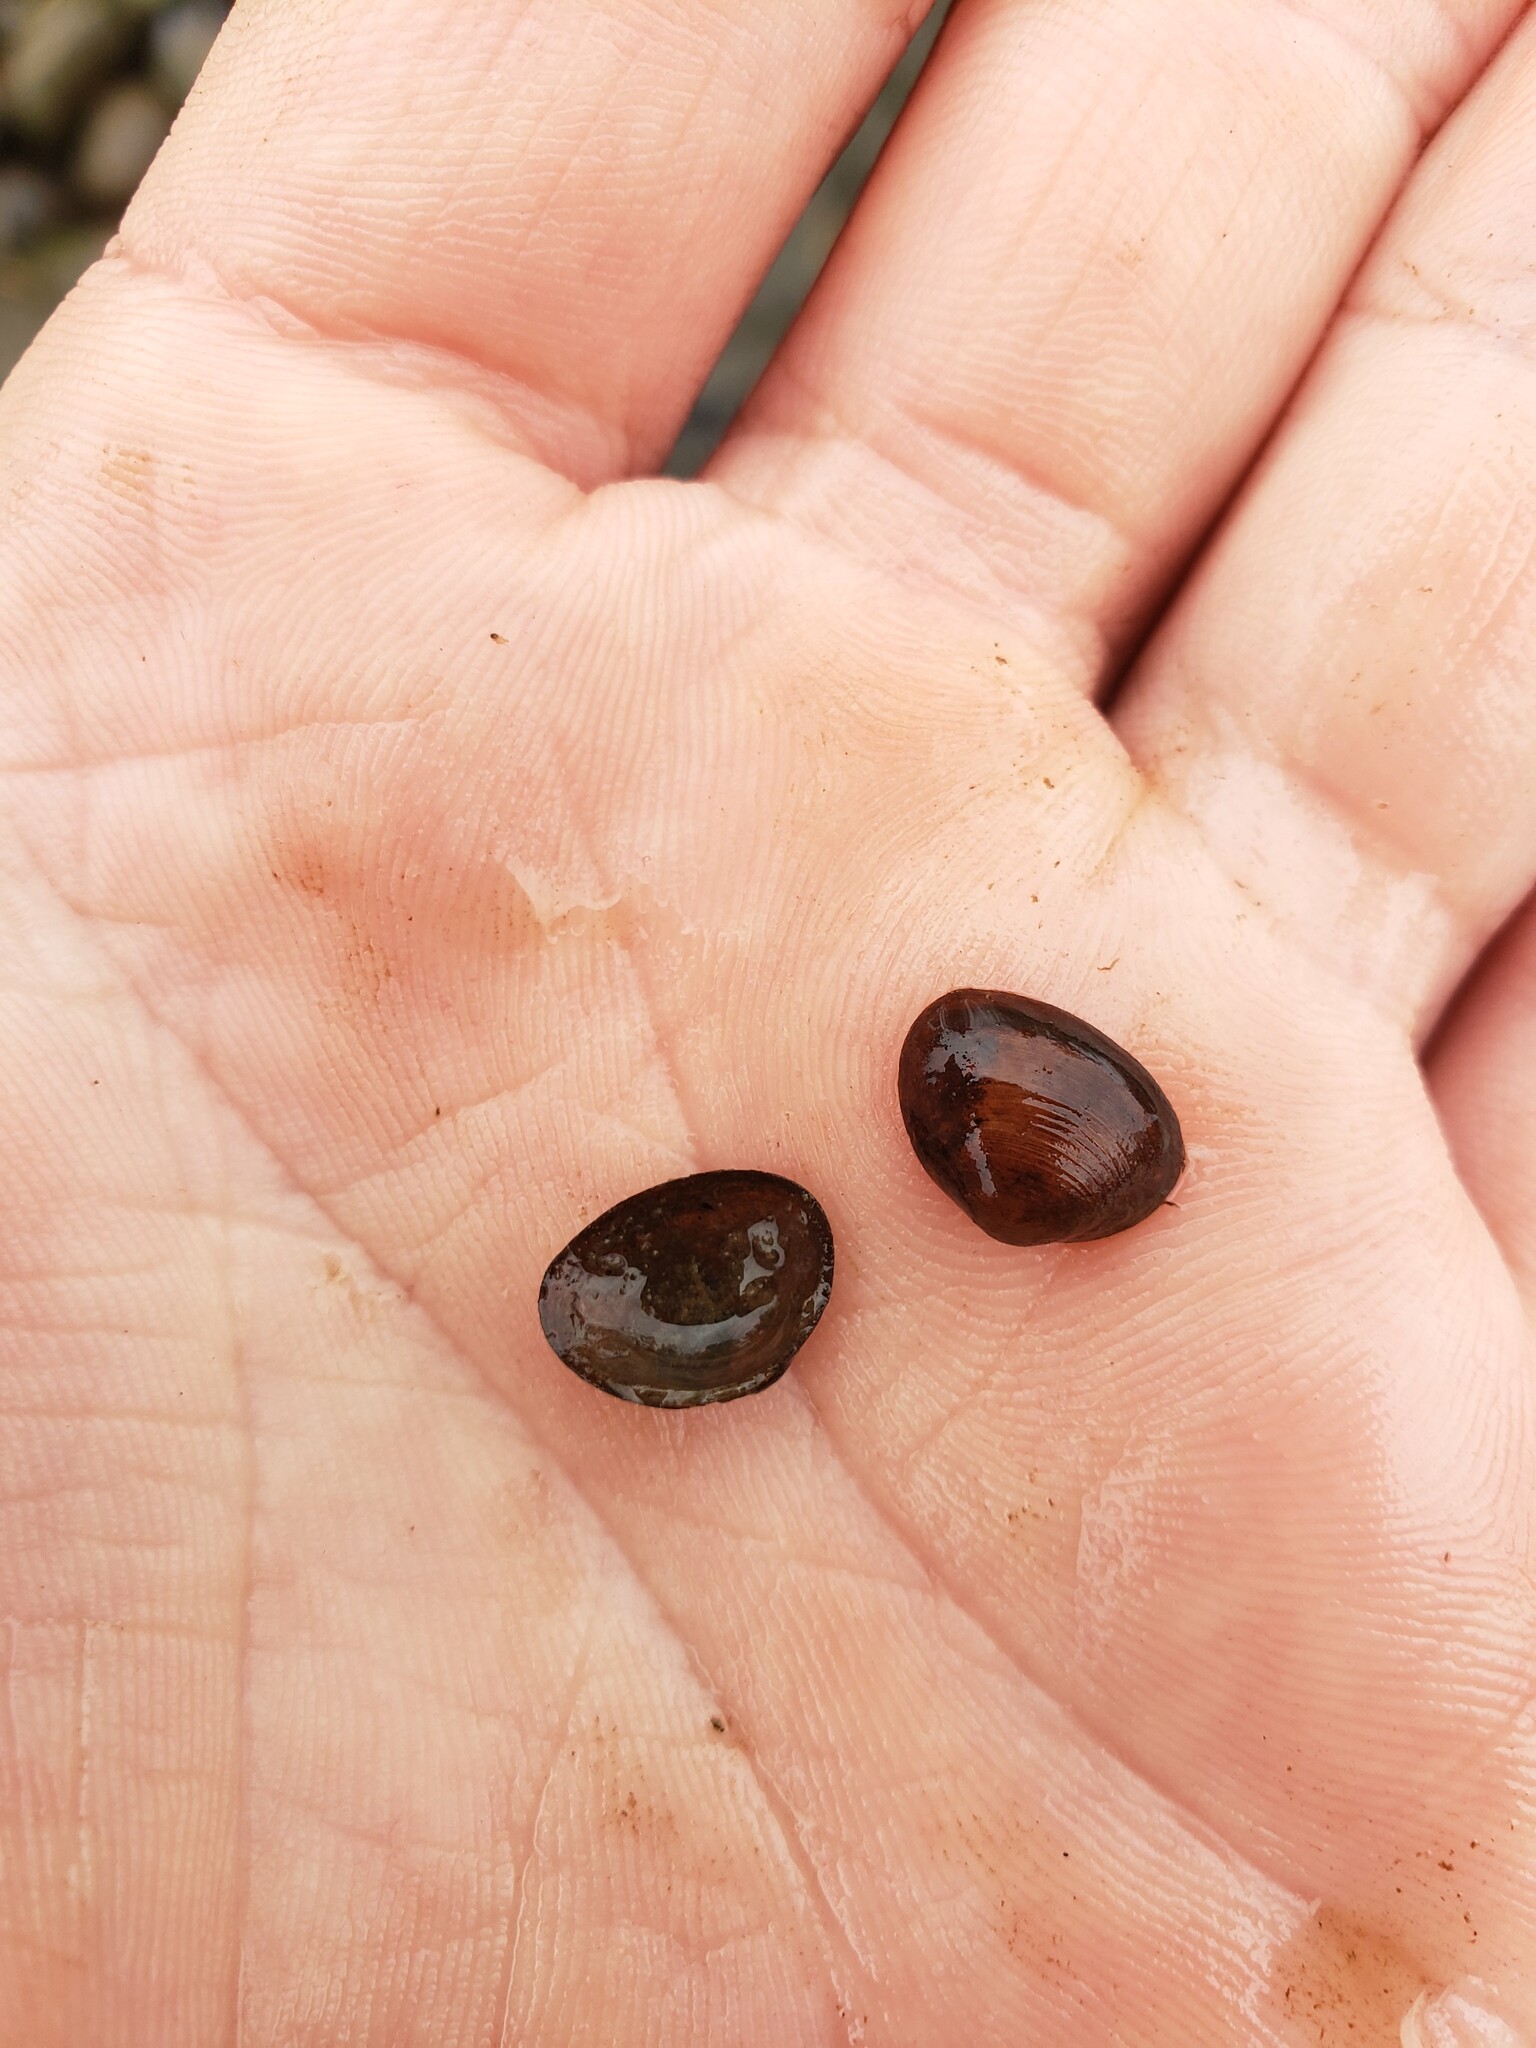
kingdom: Animalia
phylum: Mollusca
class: Bivalvia
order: Sphaeriida
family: Sphaeriidae
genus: Sphaerium
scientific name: Sphaerium simile
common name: Grooved fingernailclam
